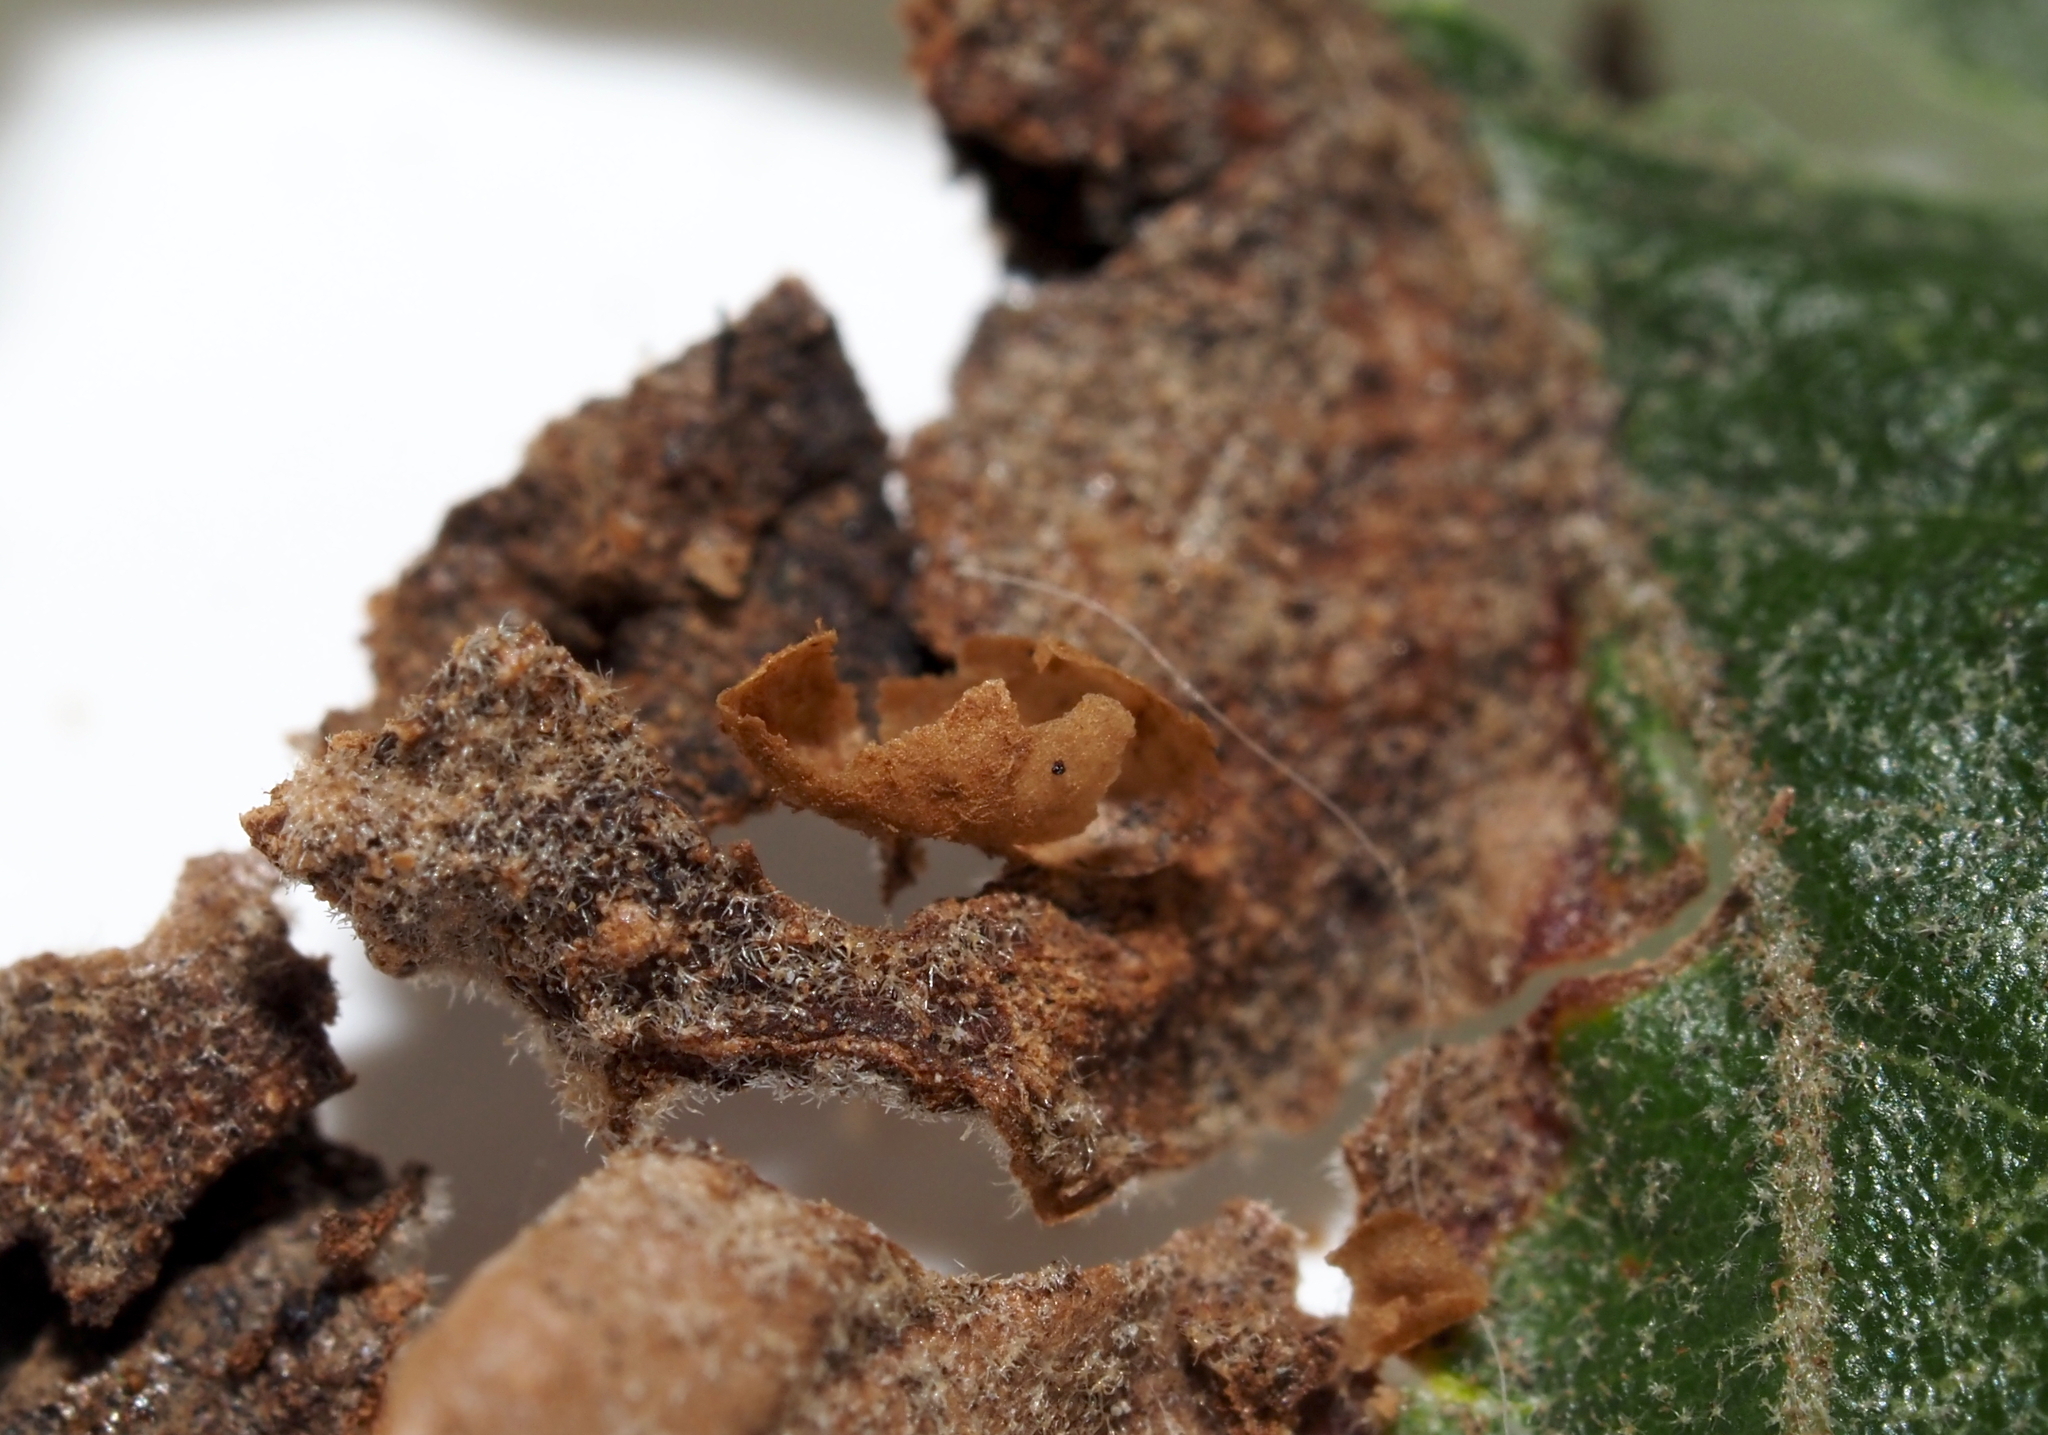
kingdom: Animalia
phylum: Arthropoda
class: Insecta
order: Hymenoptera
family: Cynipidae
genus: Dryocosmus
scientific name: Dryocosmus
